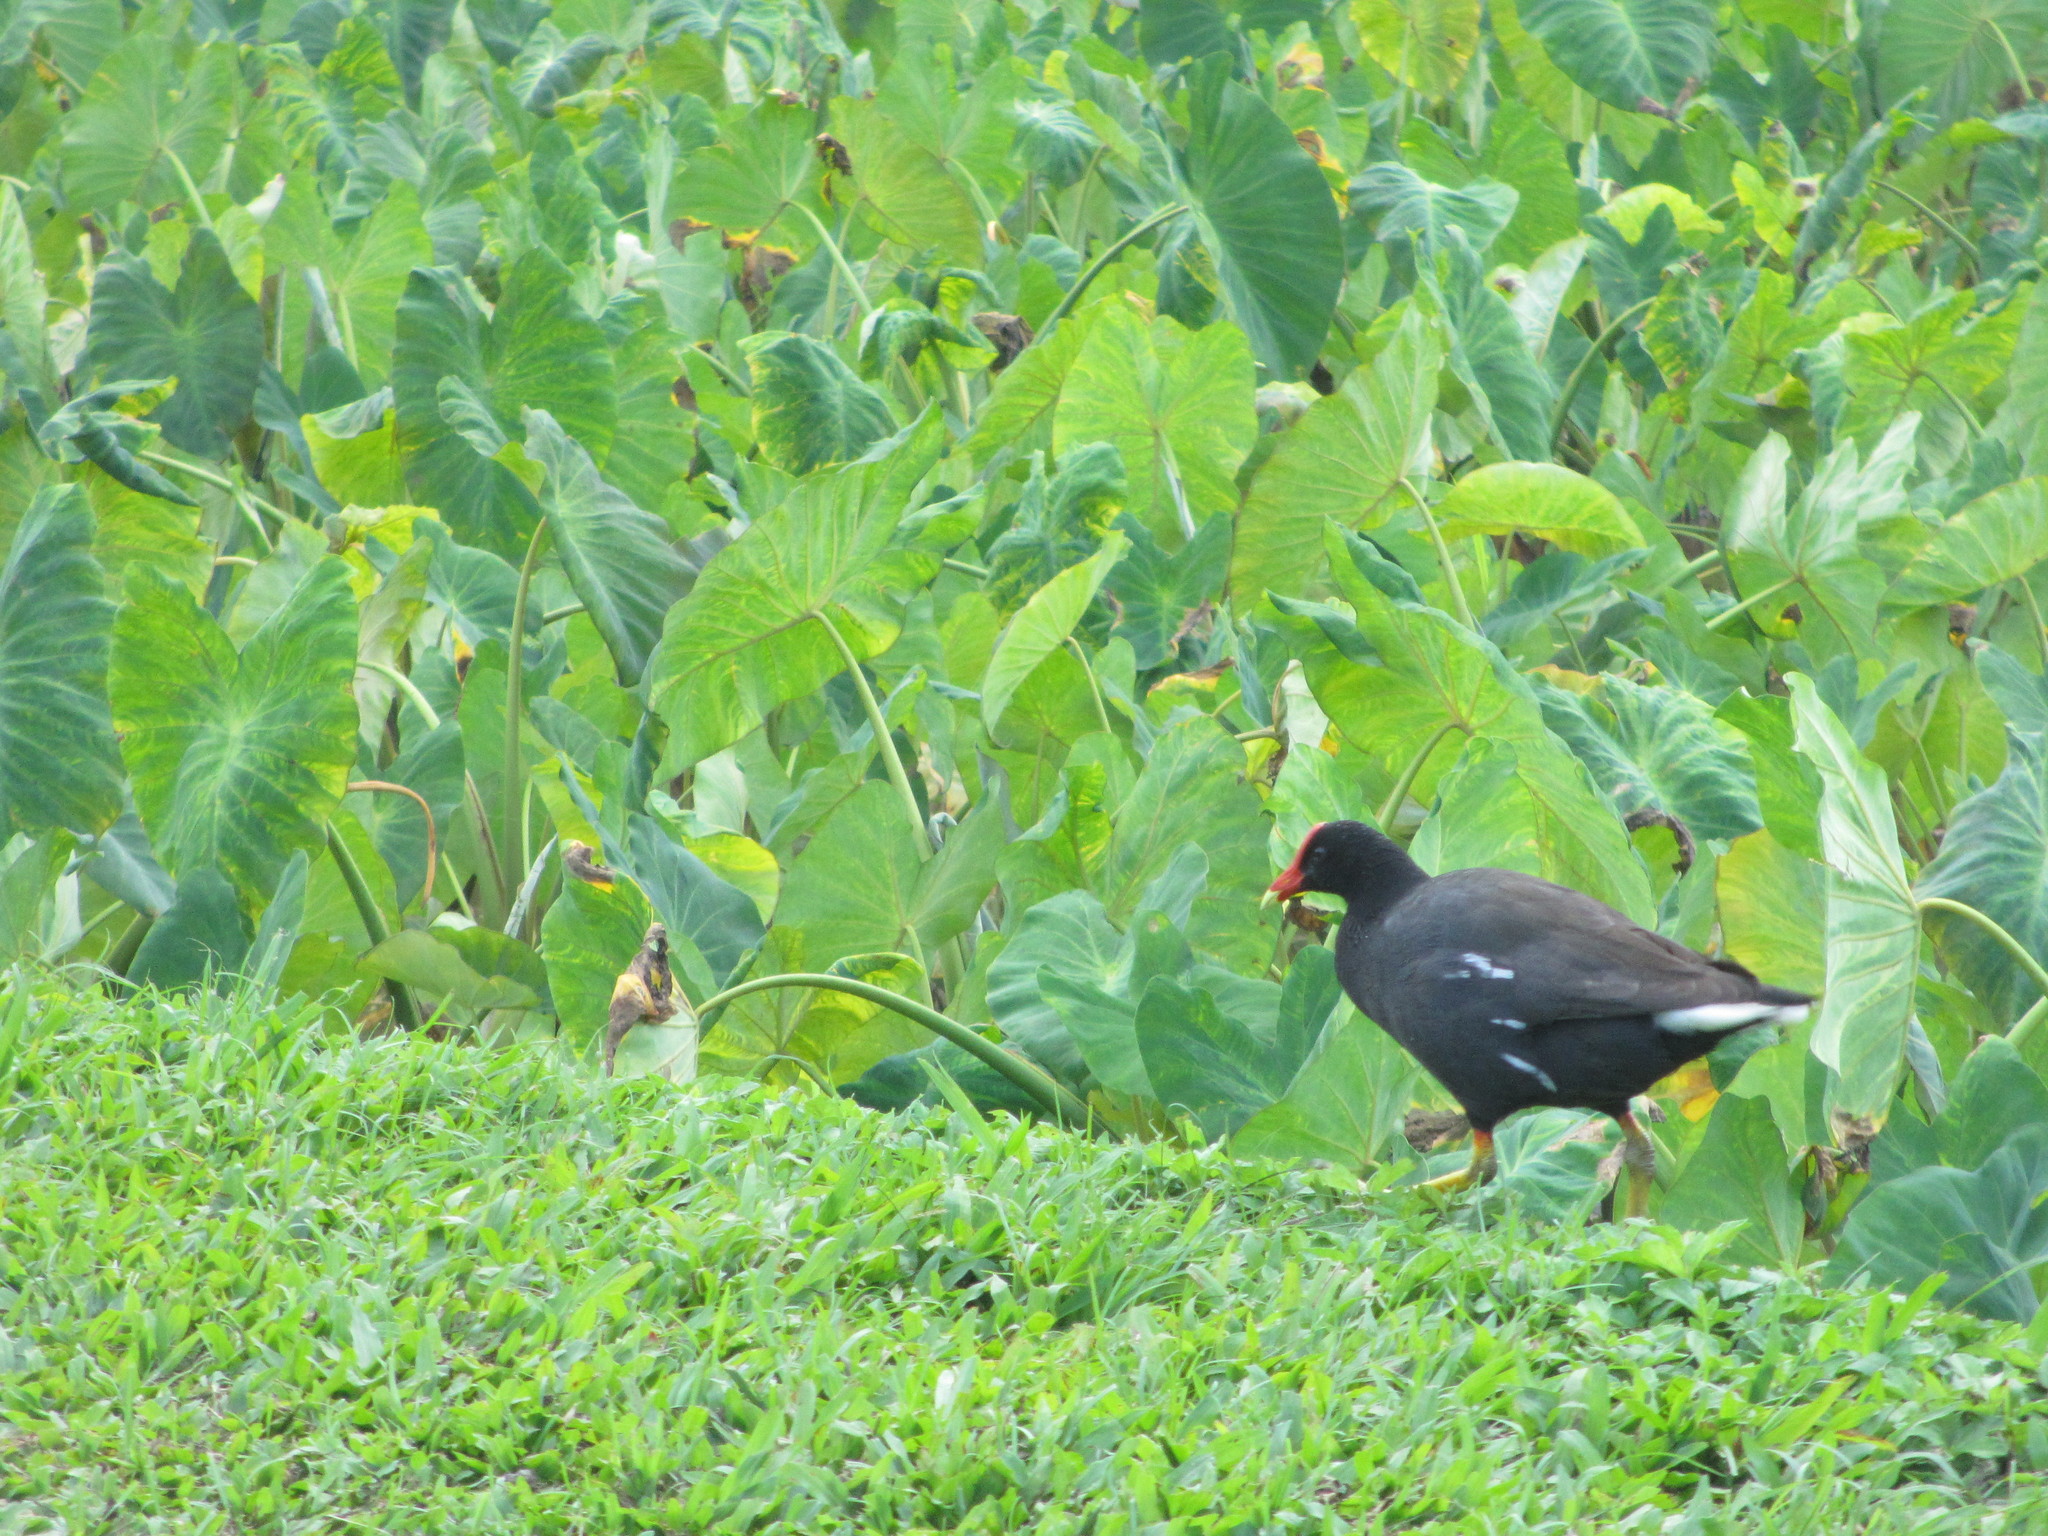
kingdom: Animalia
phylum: Chordata
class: Aves
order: Gruiformes
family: Rallidae
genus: Gallinula
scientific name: Gallinula chloropus
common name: Common moorhen
